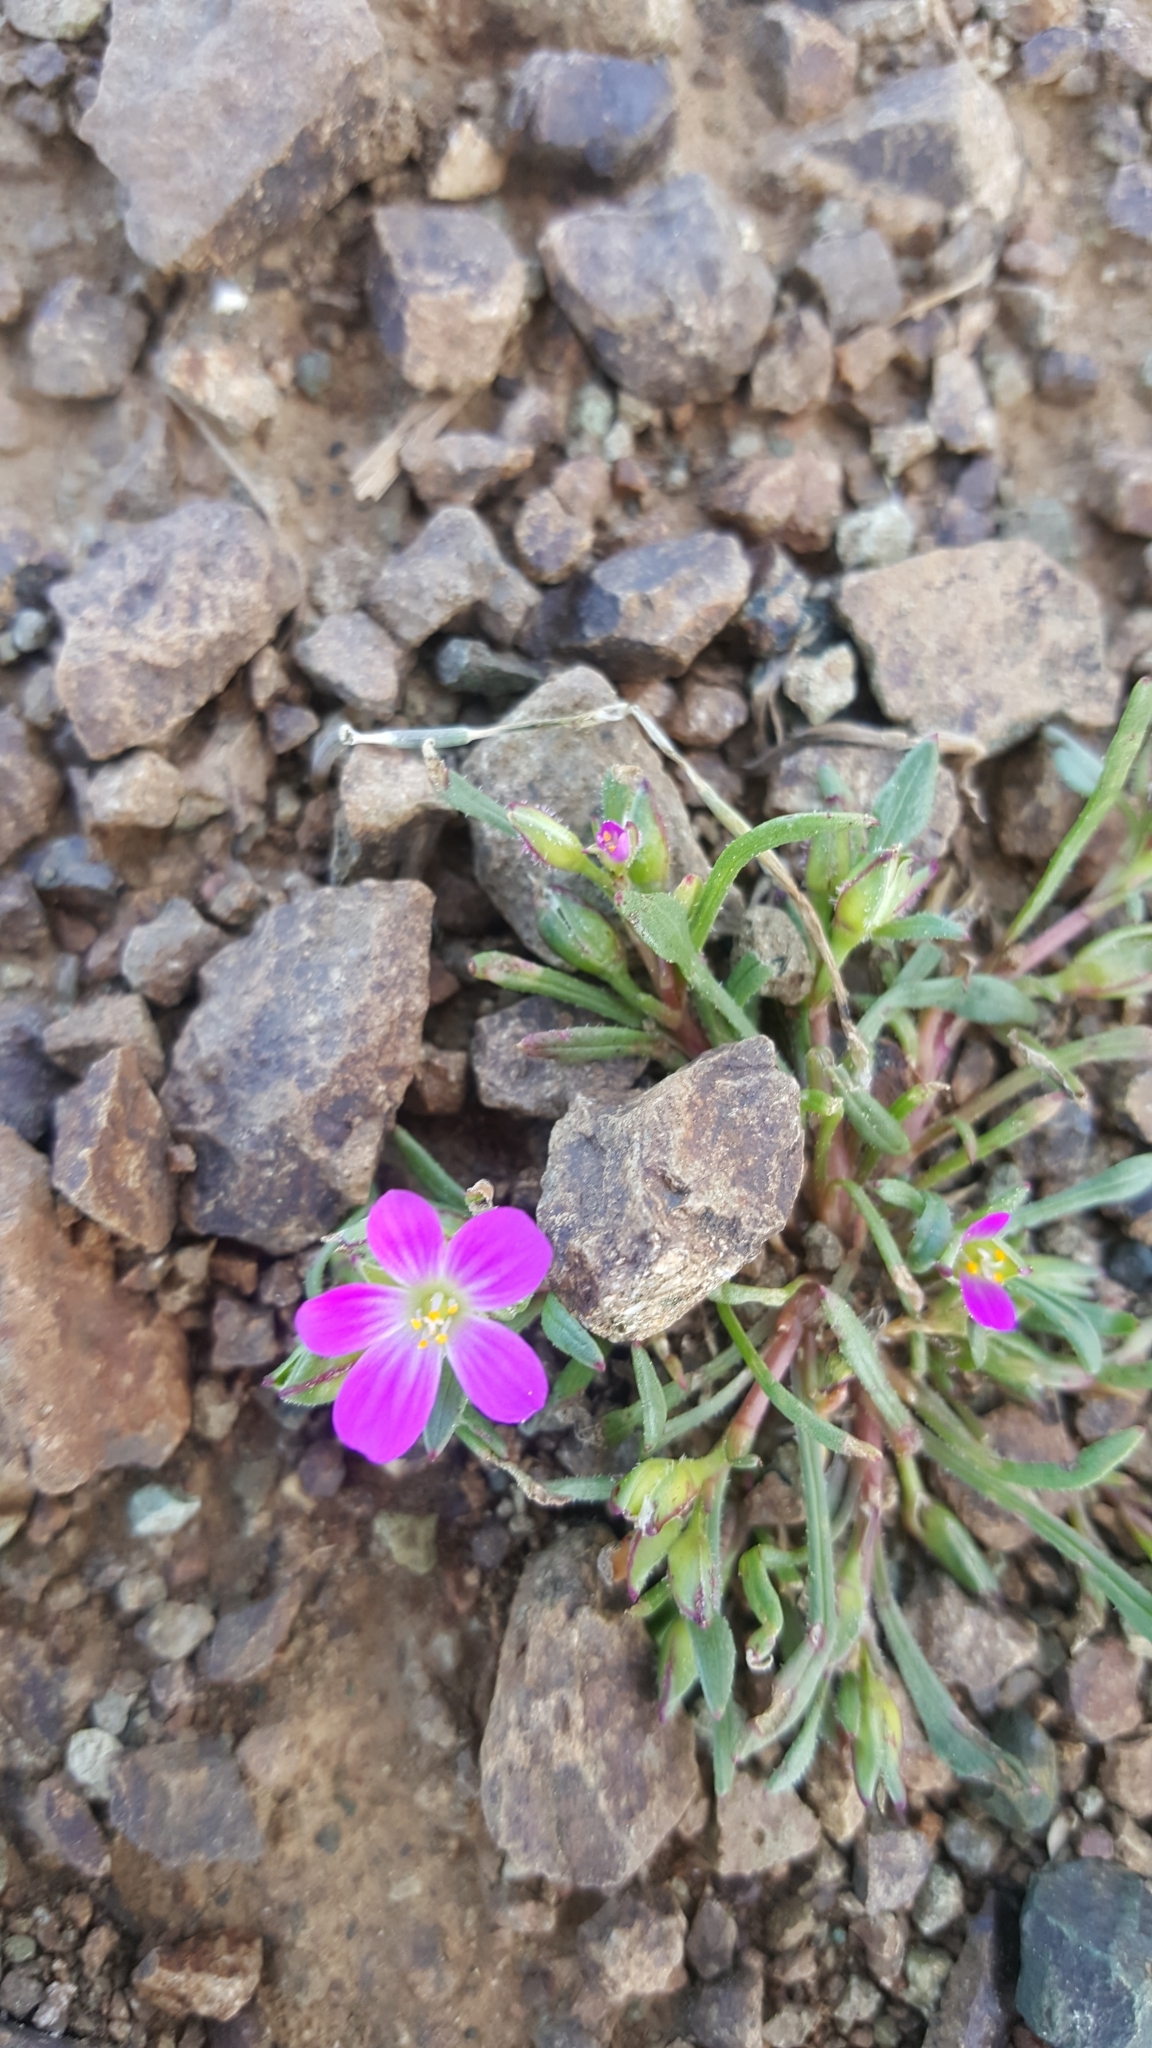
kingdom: Plantae
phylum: Tracheophyta
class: Magnoliopsida
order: Caryophyllales
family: Montiaceae
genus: Calandrinia
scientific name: Calandrinia menziesii
